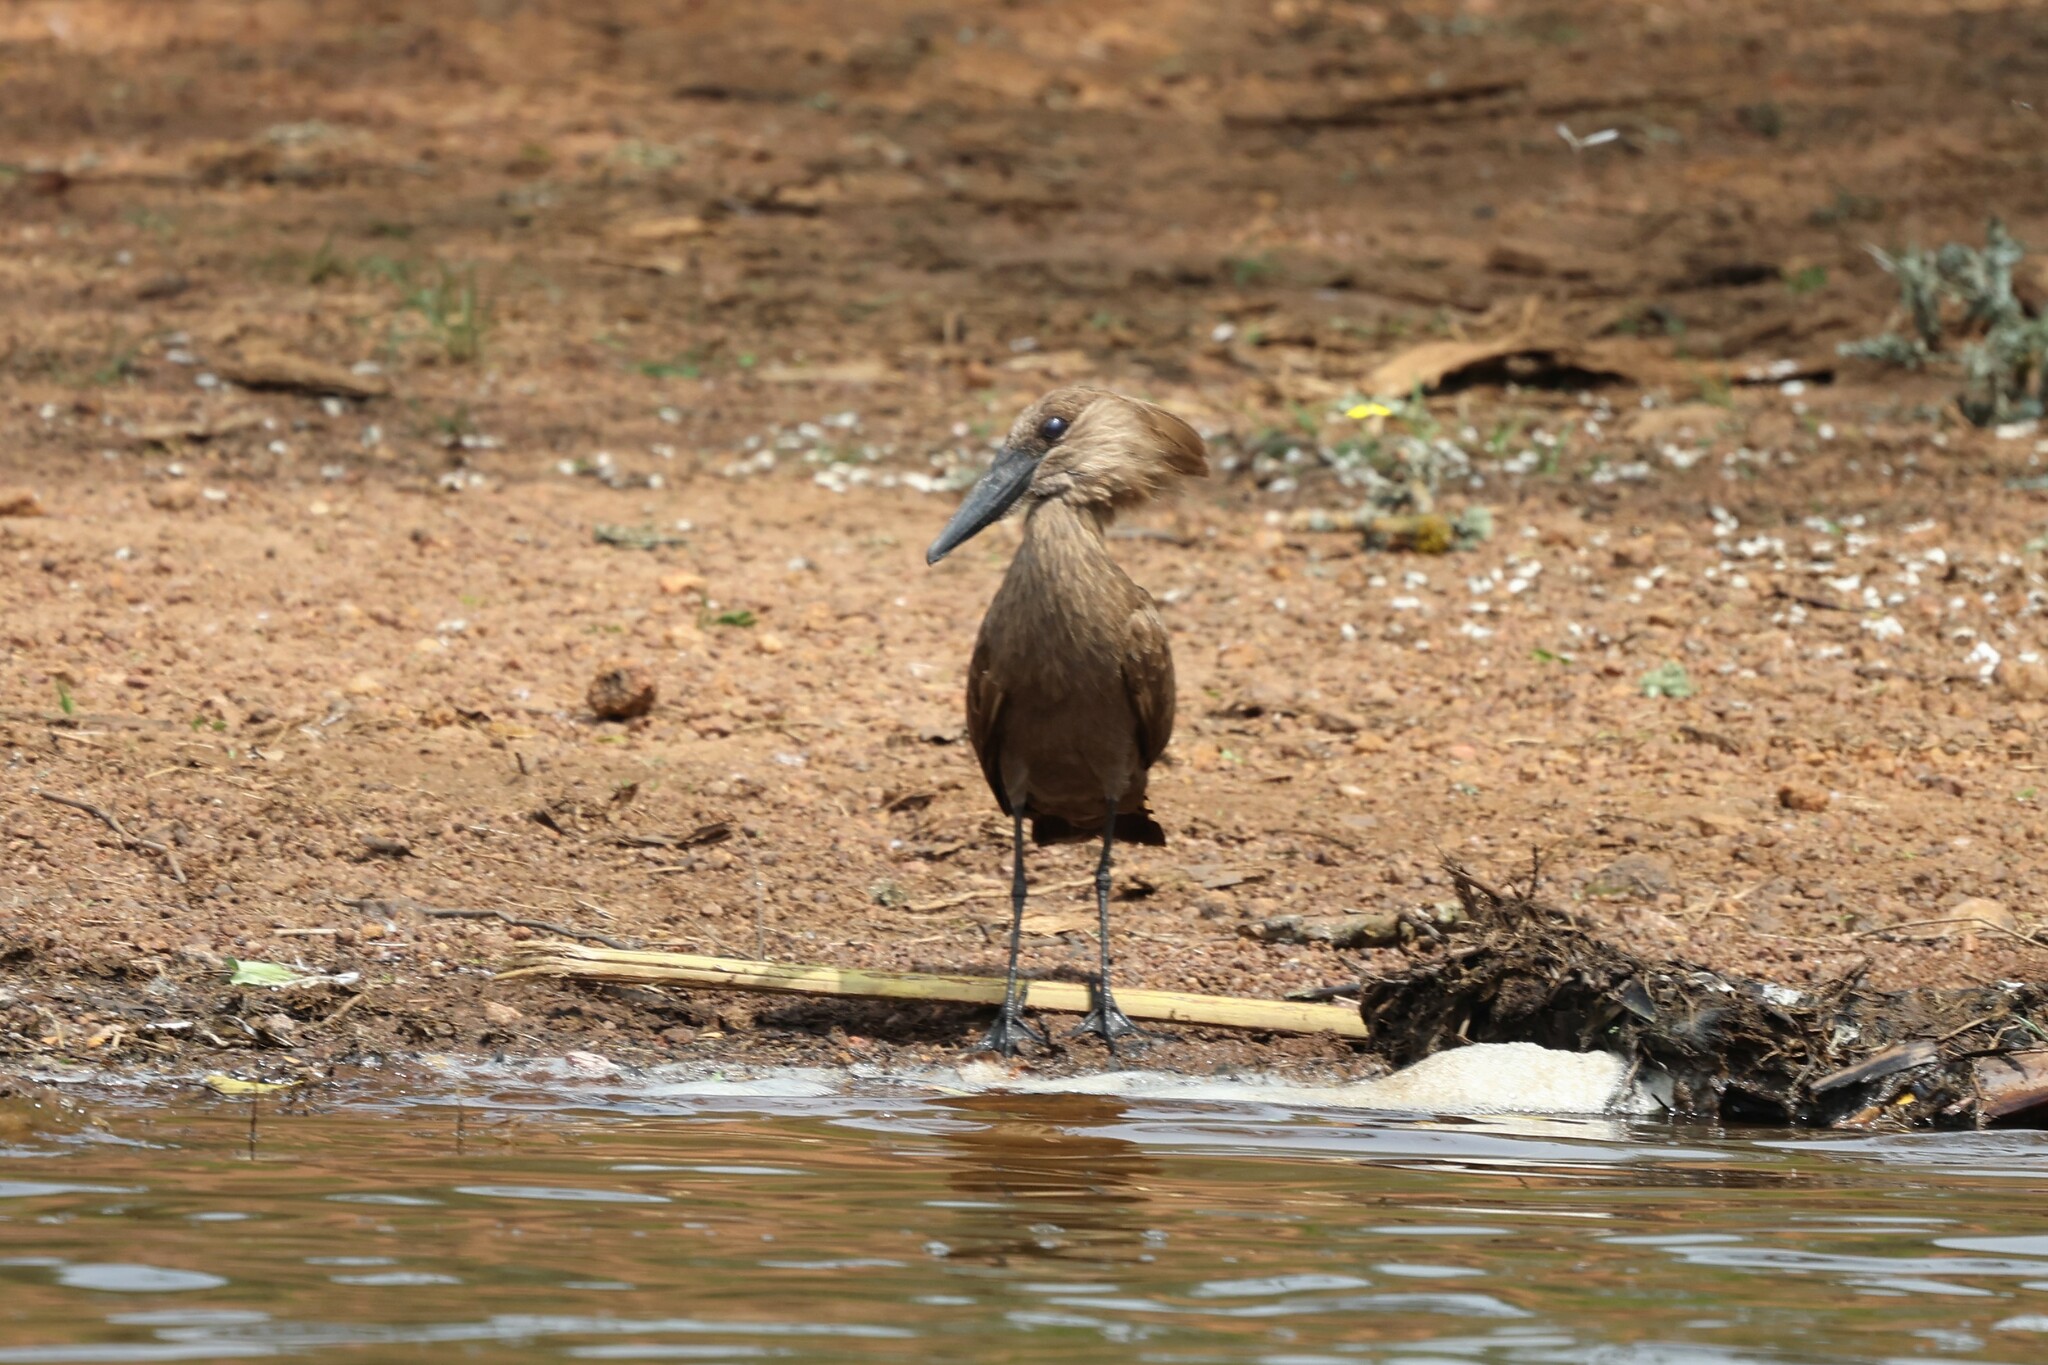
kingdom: Animalia
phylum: Chordata
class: Aves
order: Pelecaniformes
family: Scopidae
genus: Scopus
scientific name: Scopus umbretta
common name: Hamerkop
